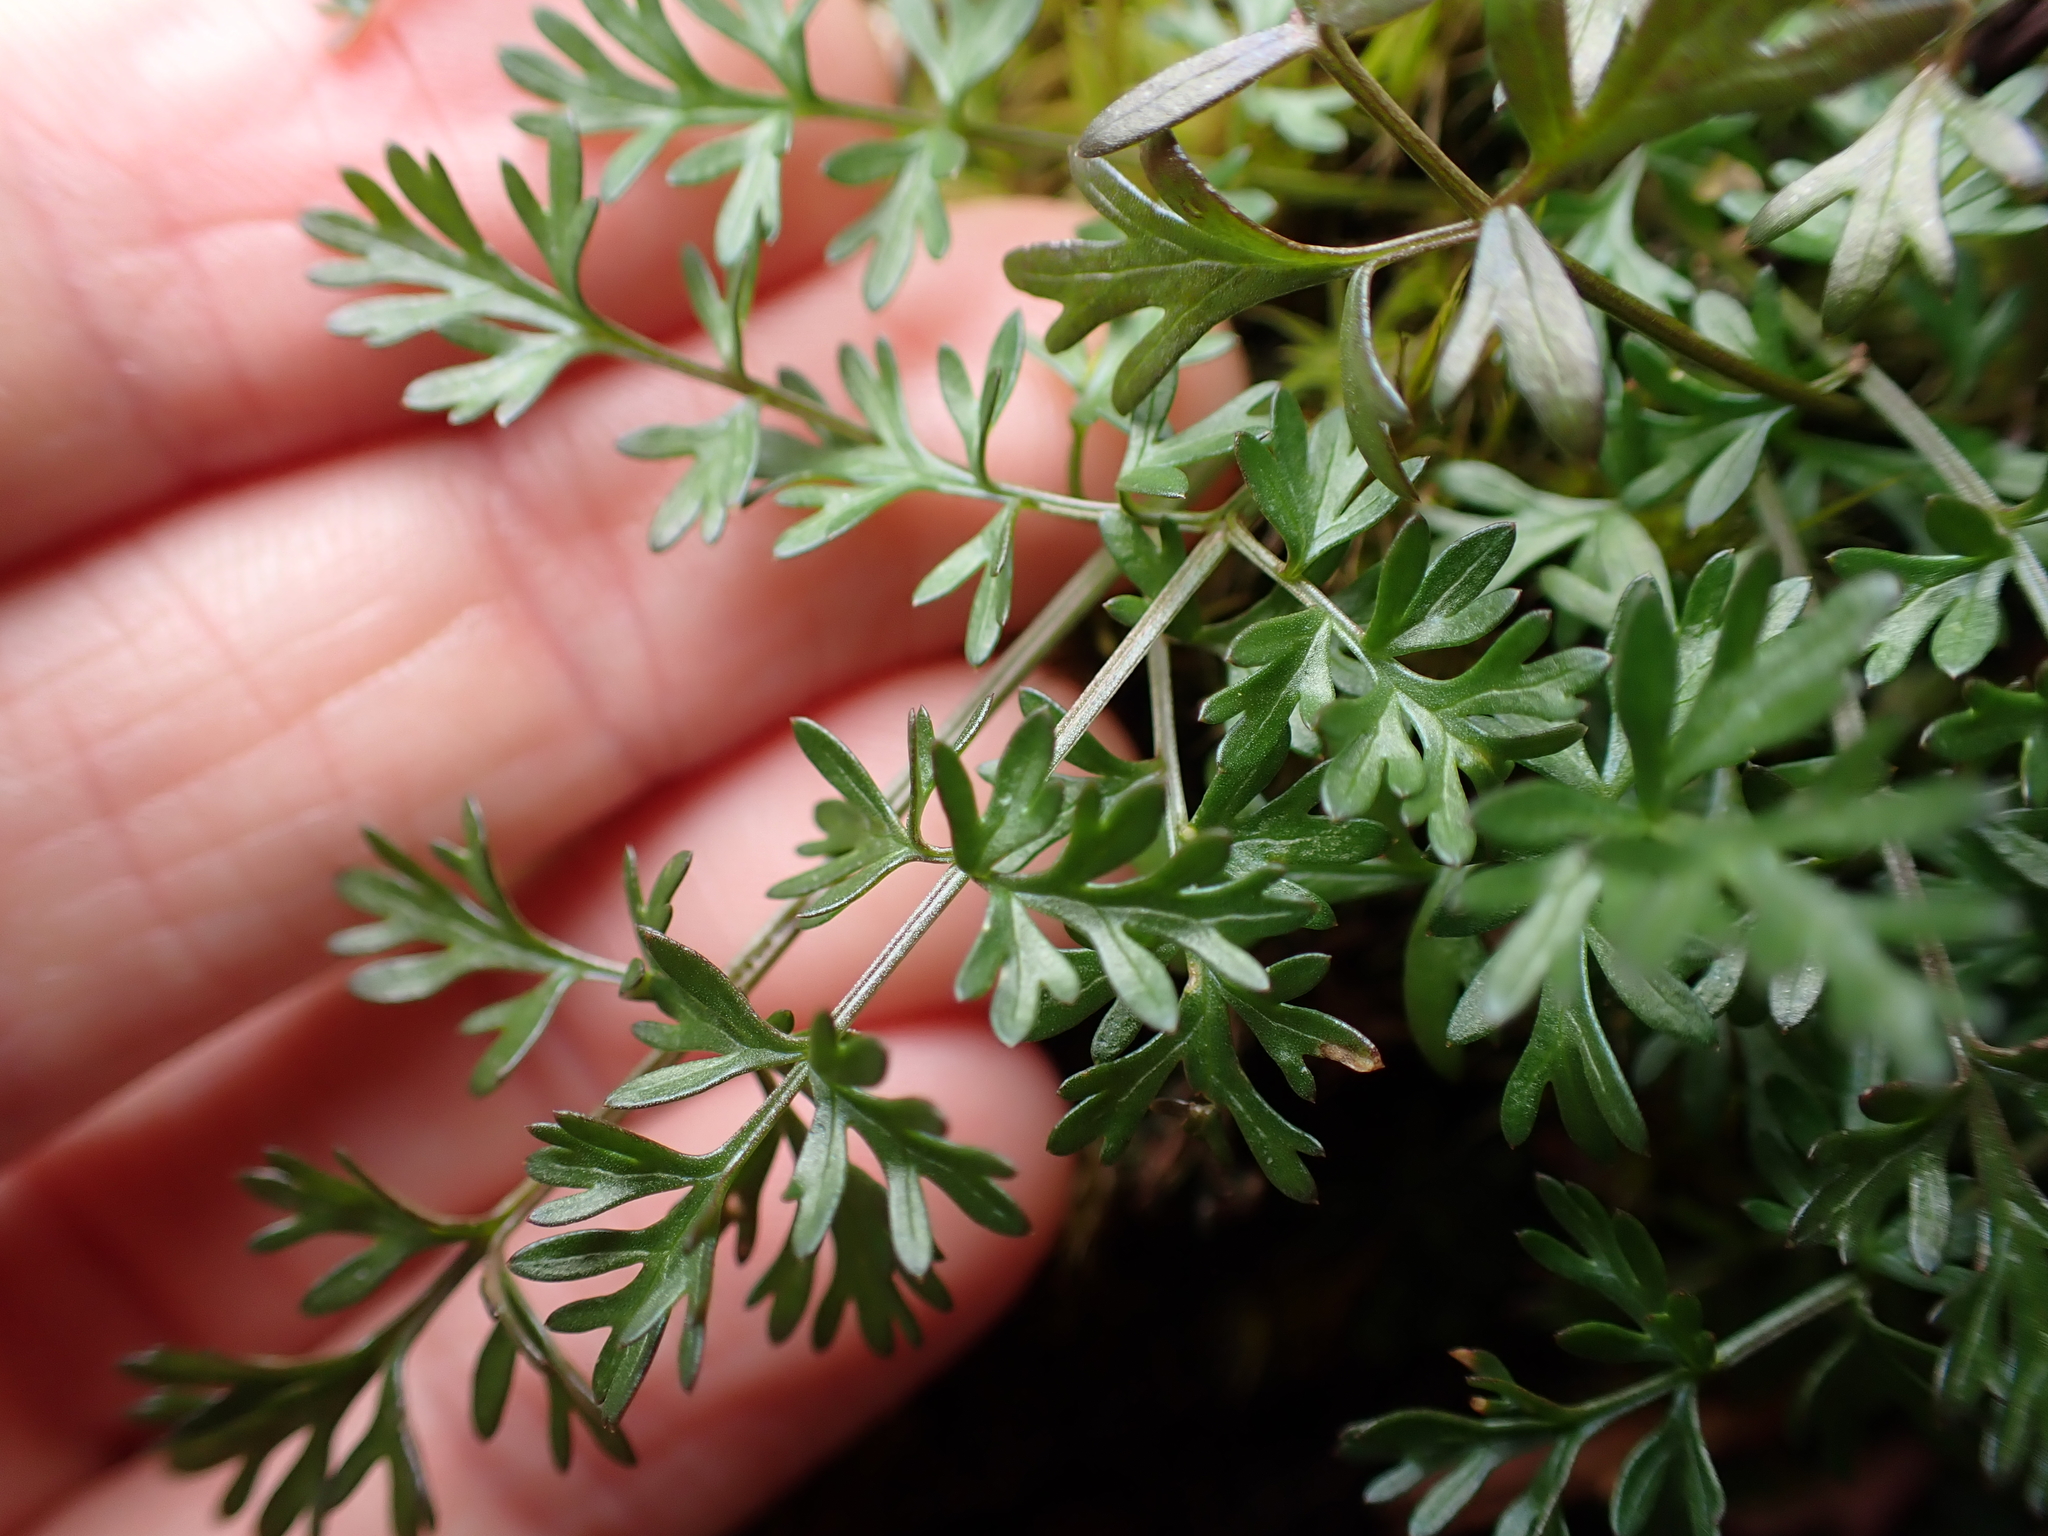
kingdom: Plantae
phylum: Tracheophyta
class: Magnoliopsida
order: Apiales
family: Apiaceae
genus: Lomatium
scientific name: Lomatium utriculatum
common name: Fine-leaf desert-parsley
